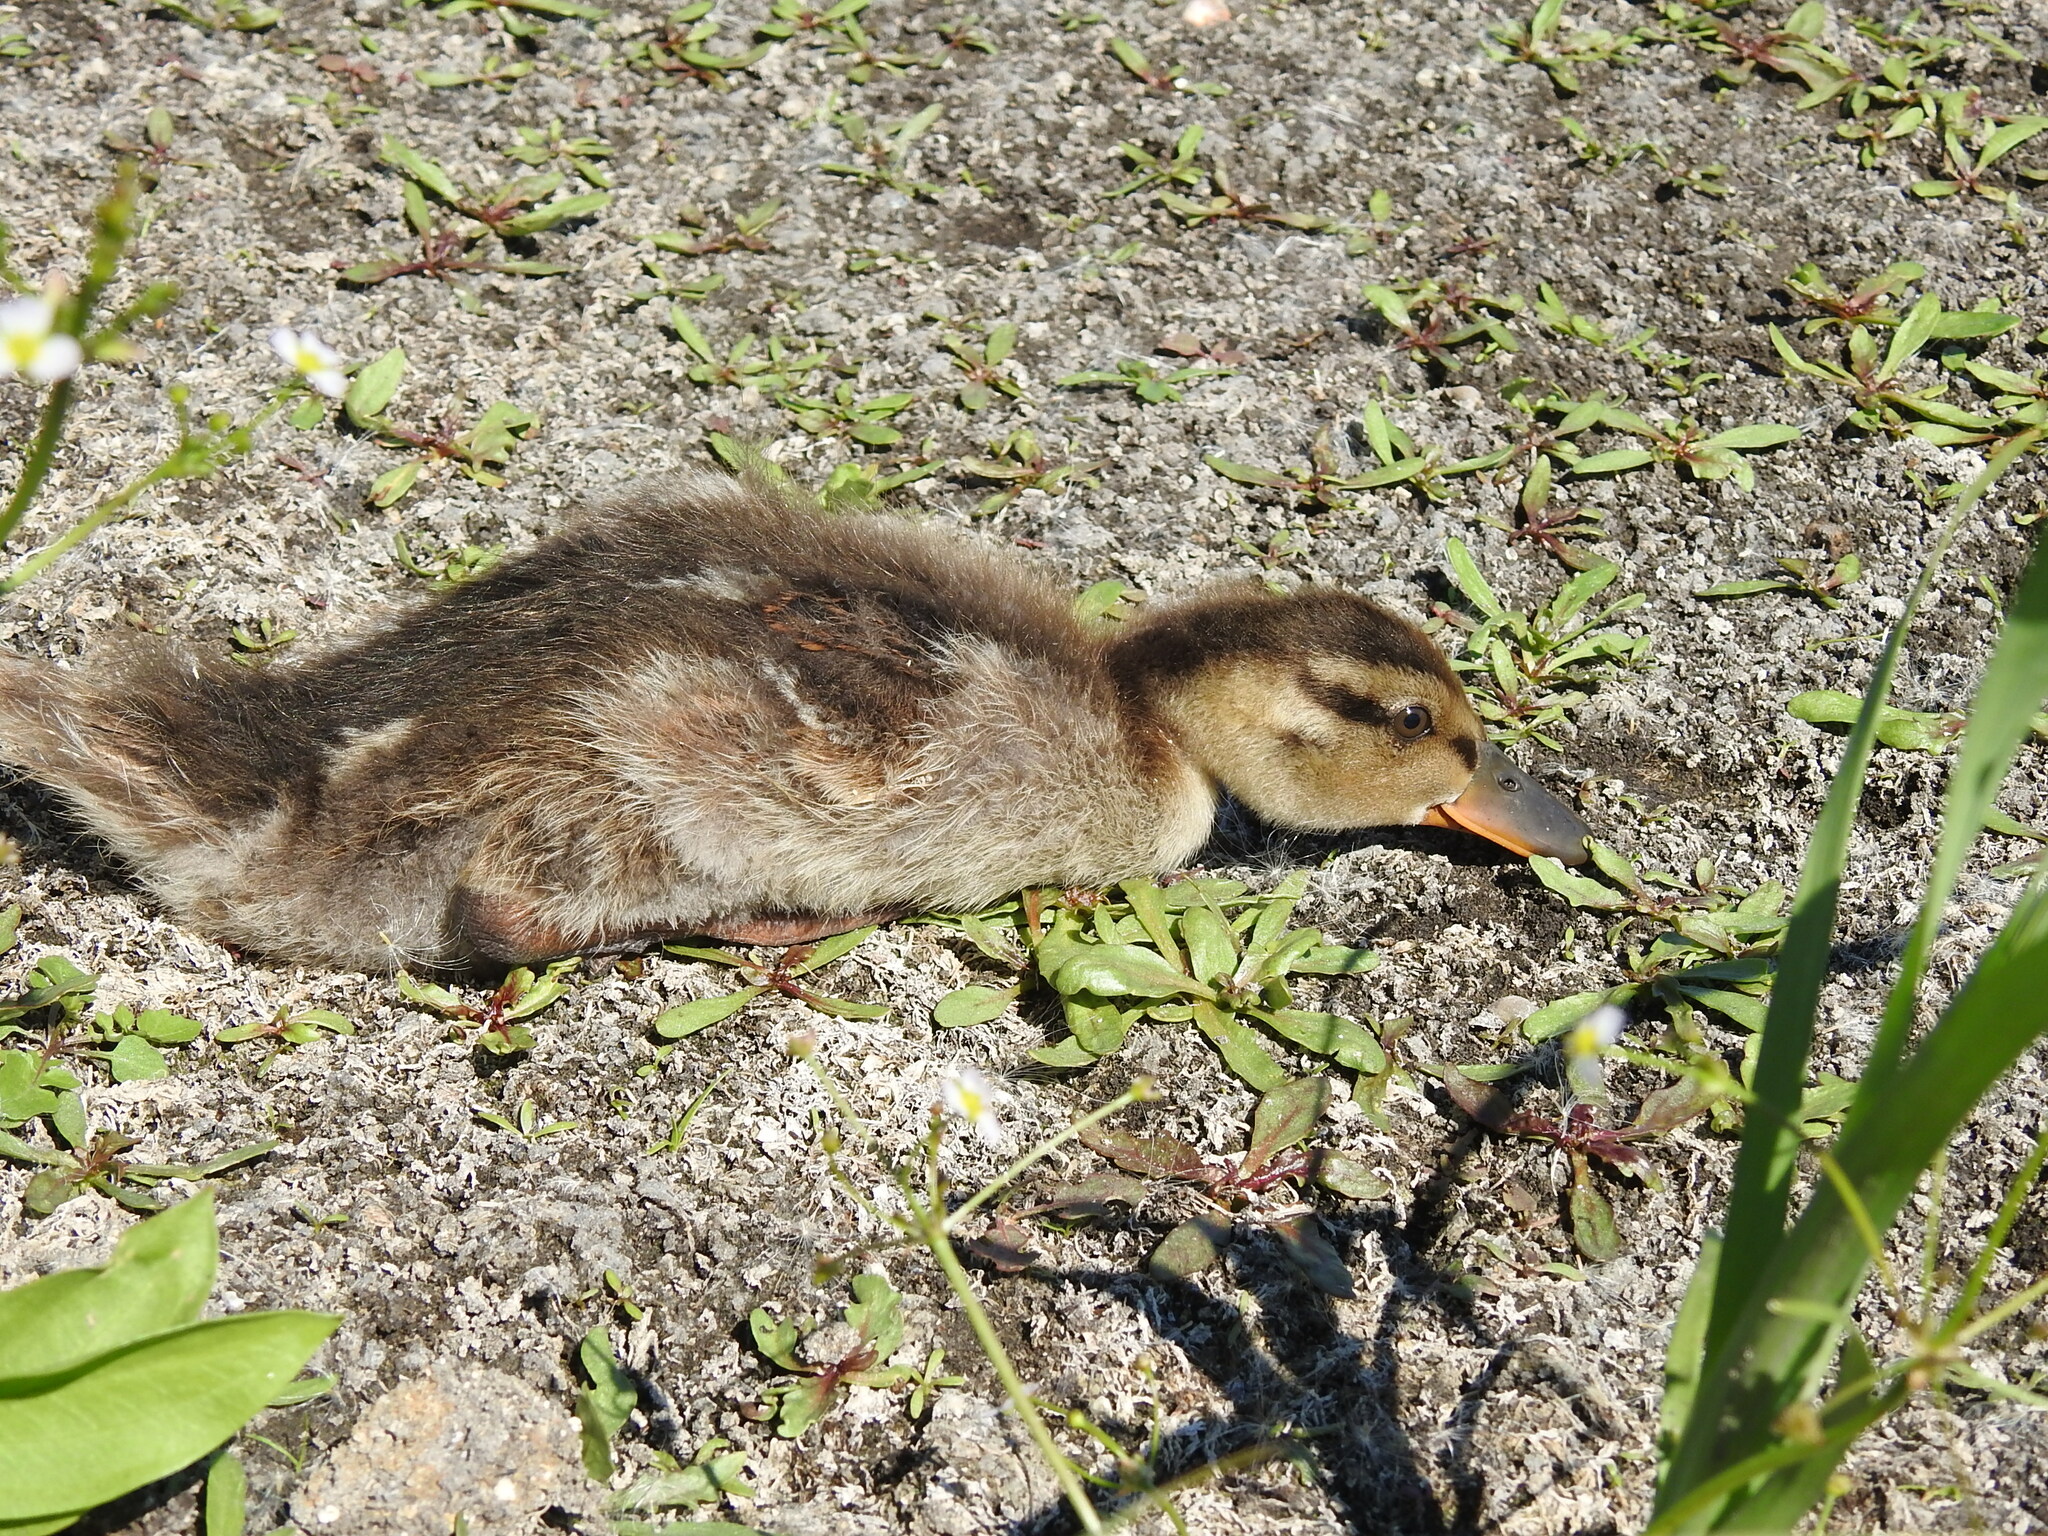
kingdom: Animalia
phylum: Chordata
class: Aves
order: Anseriformes
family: Anatidae
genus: Anas
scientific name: Anas platyrhynchos
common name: Mallard
